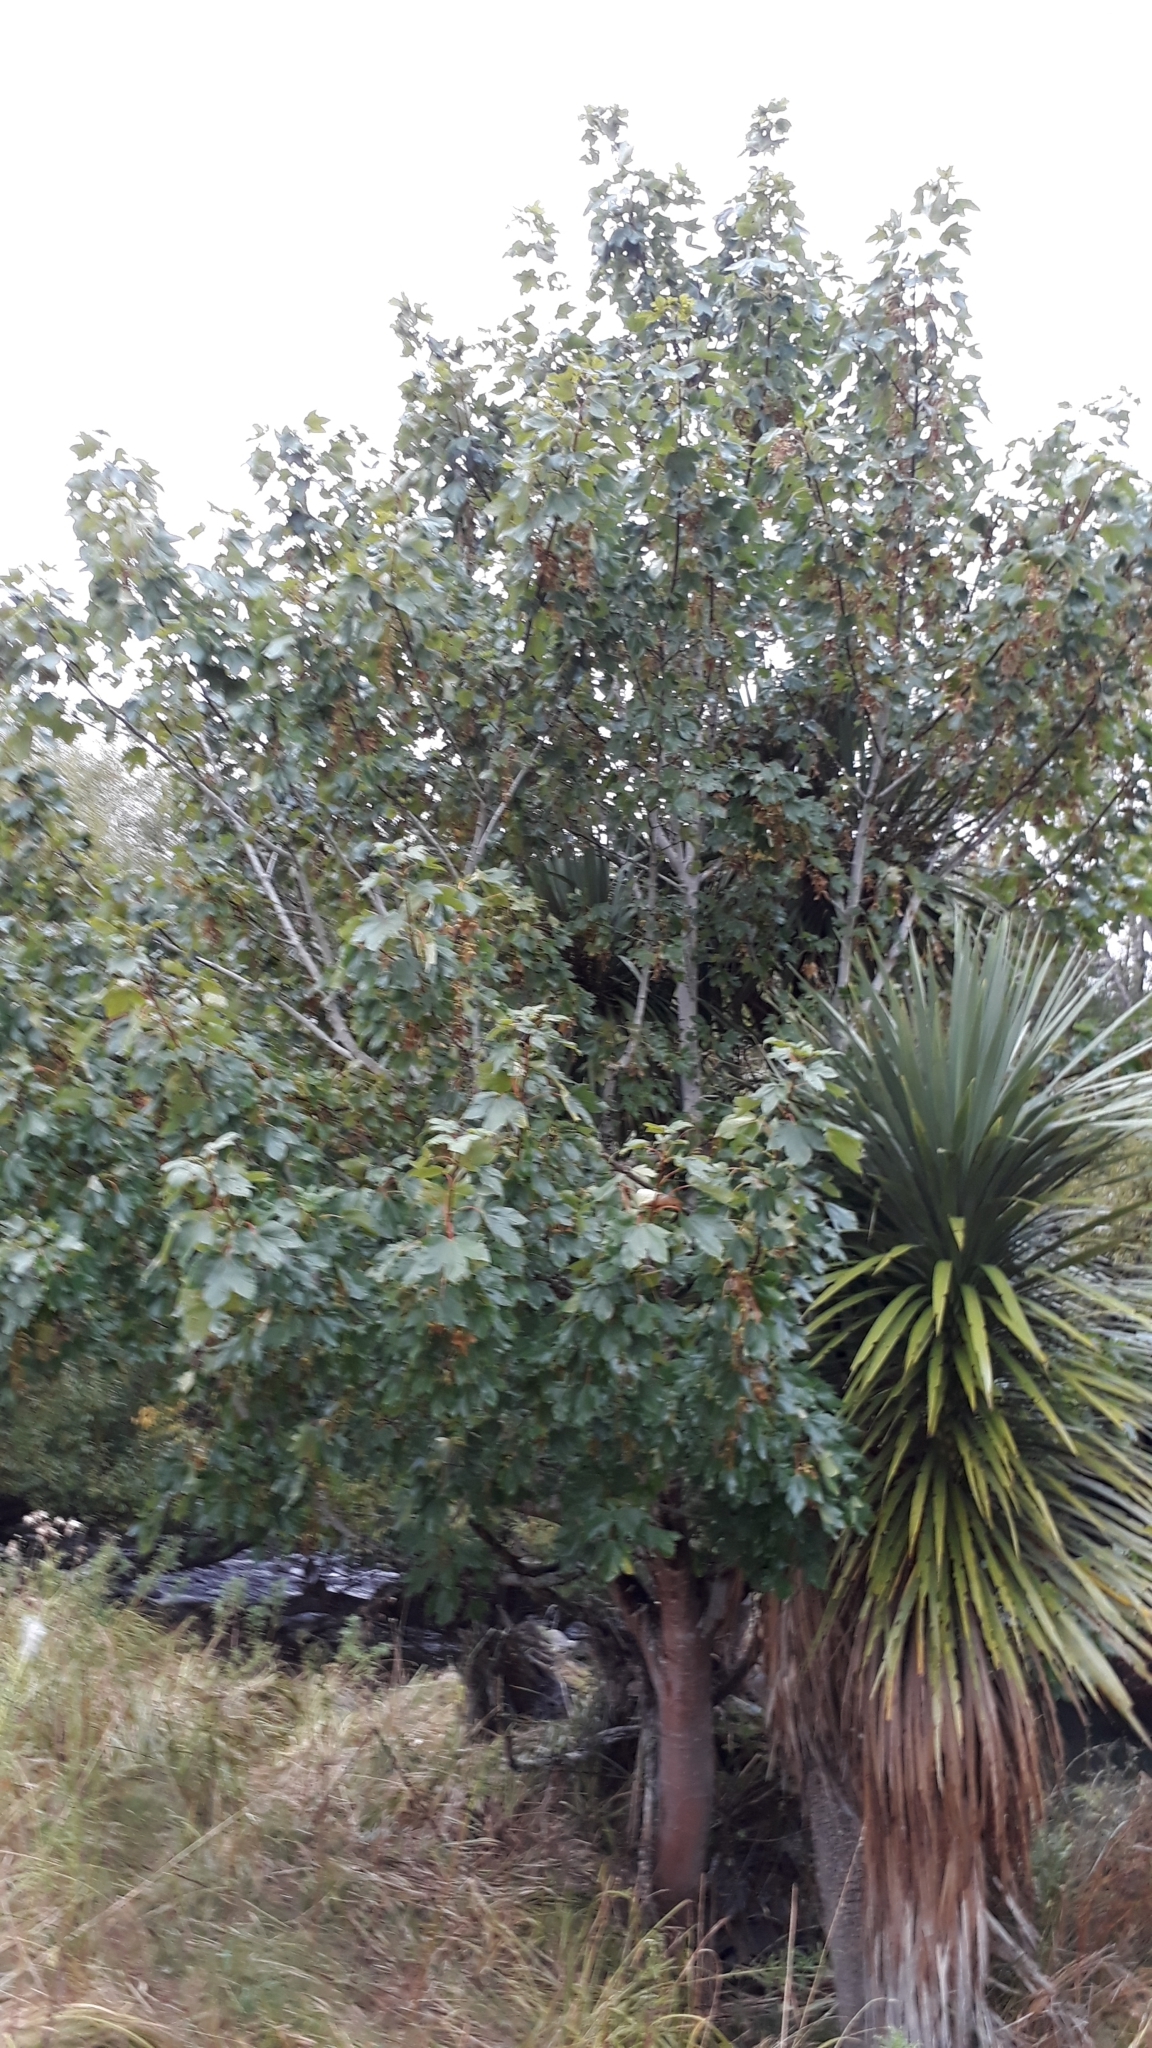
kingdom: Plantae
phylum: Tracheophyta
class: Magnoliopsida
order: Sapindales
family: Sapindaceae
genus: Acer
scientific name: Acer pseudoplatanus
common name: Sycamore
